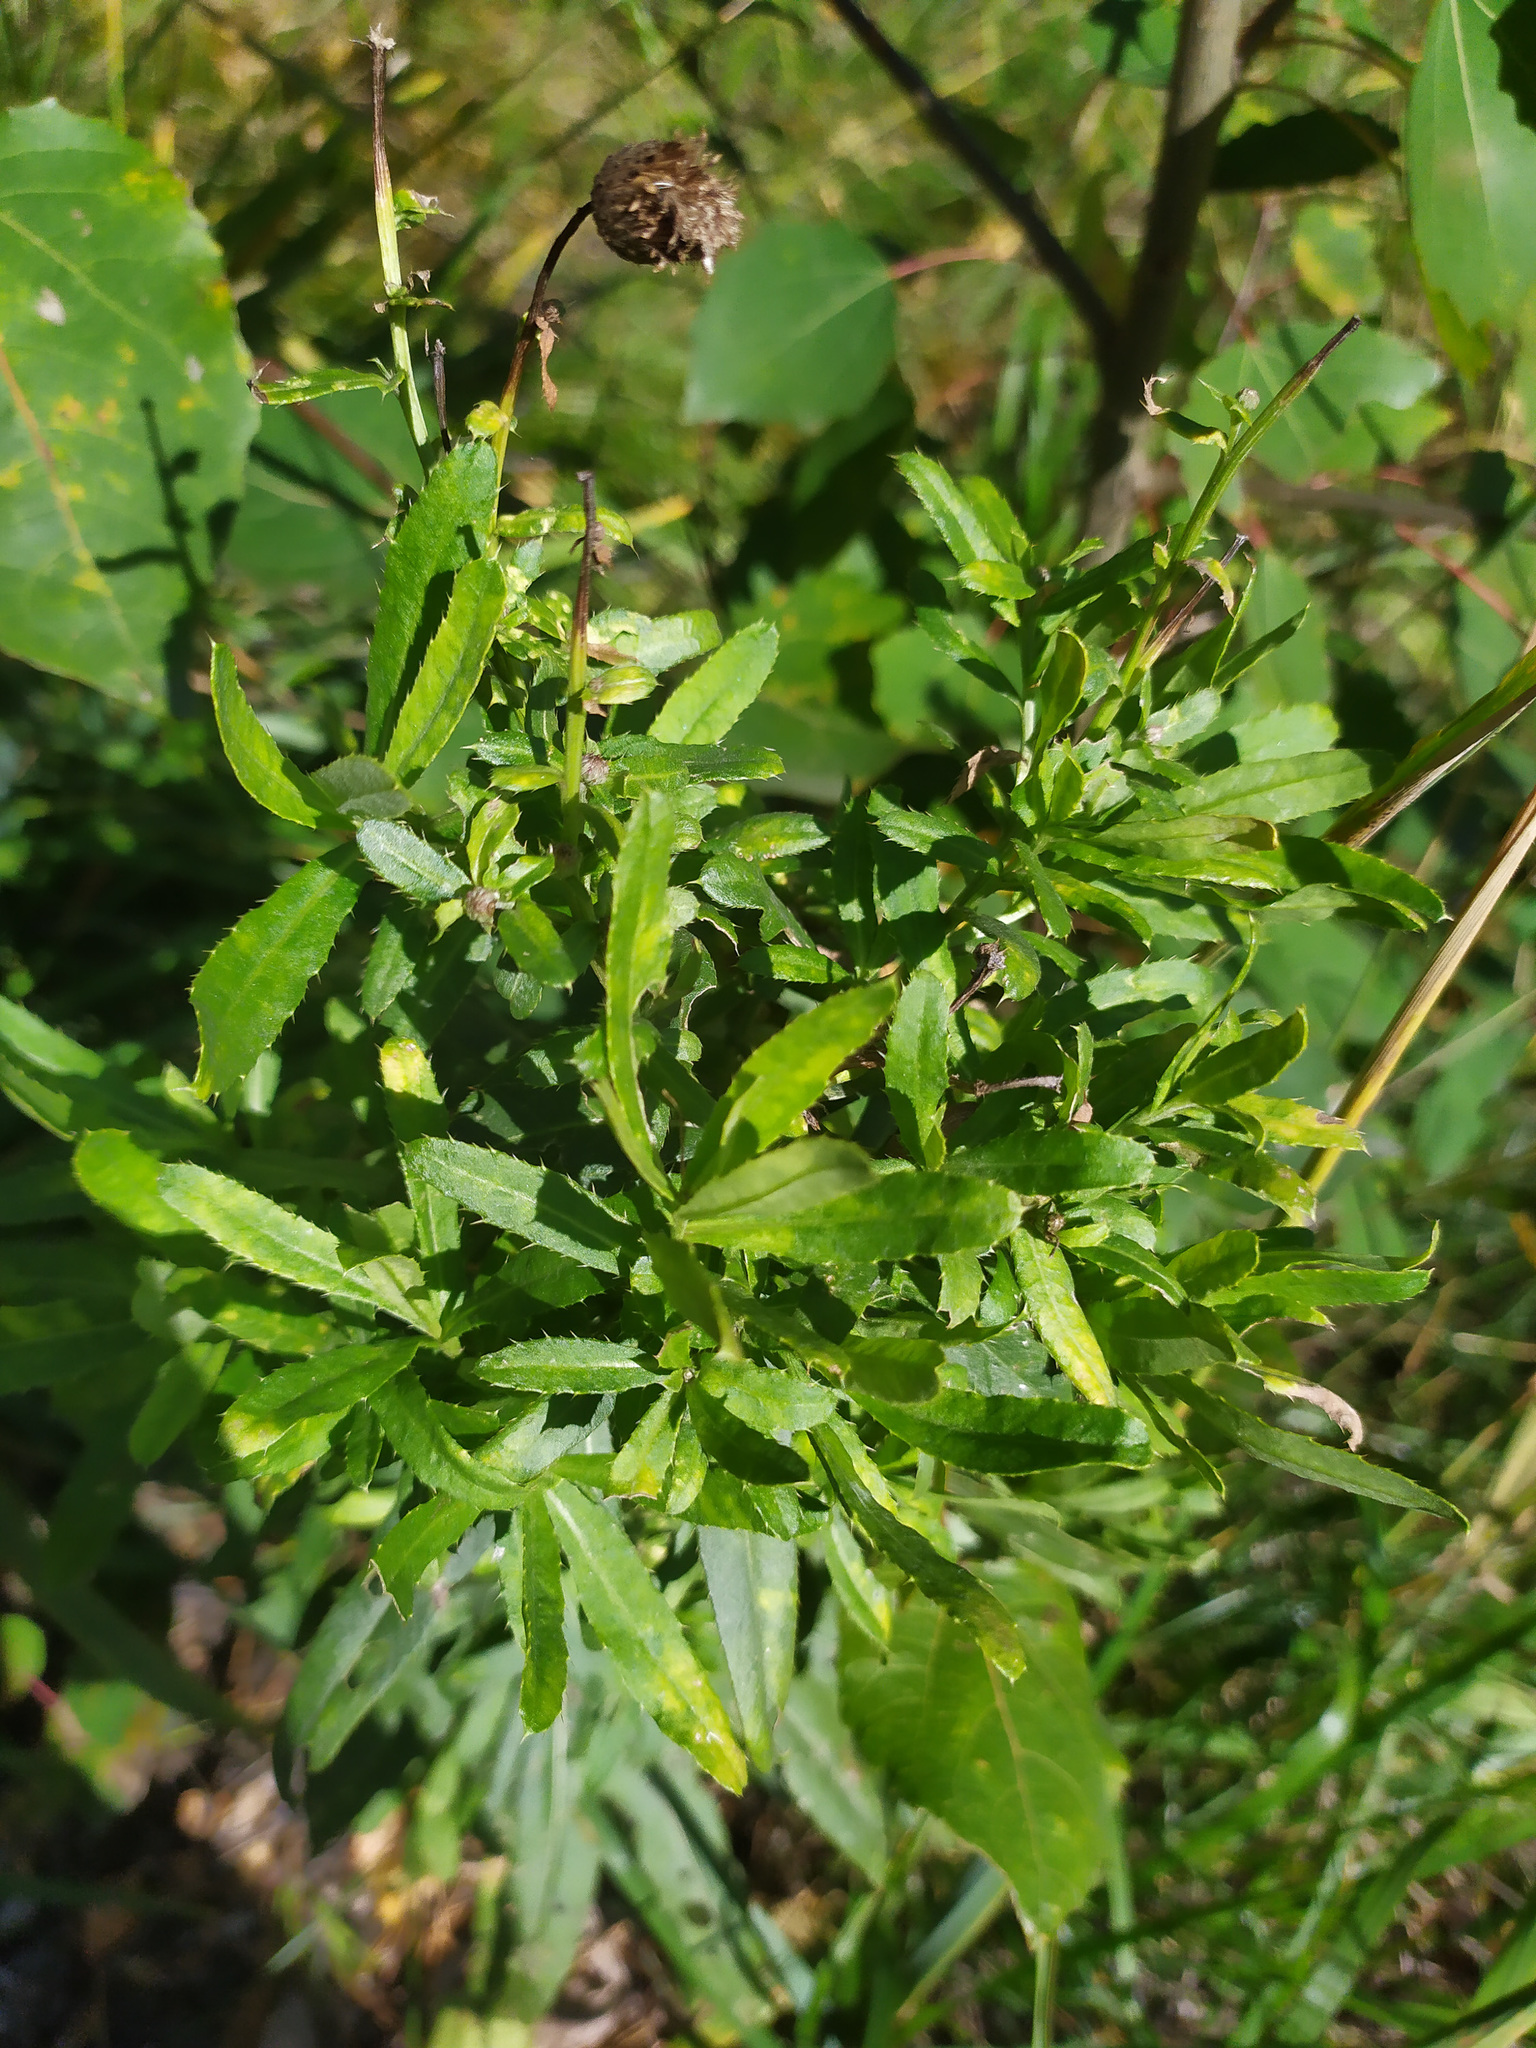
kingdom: Plantae
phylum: Tracheophyta
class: Magnoliopsida
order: Asterales
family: Asteraceae
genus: Cirsium
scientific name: Cirsium arvense
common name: Creeping thistle
